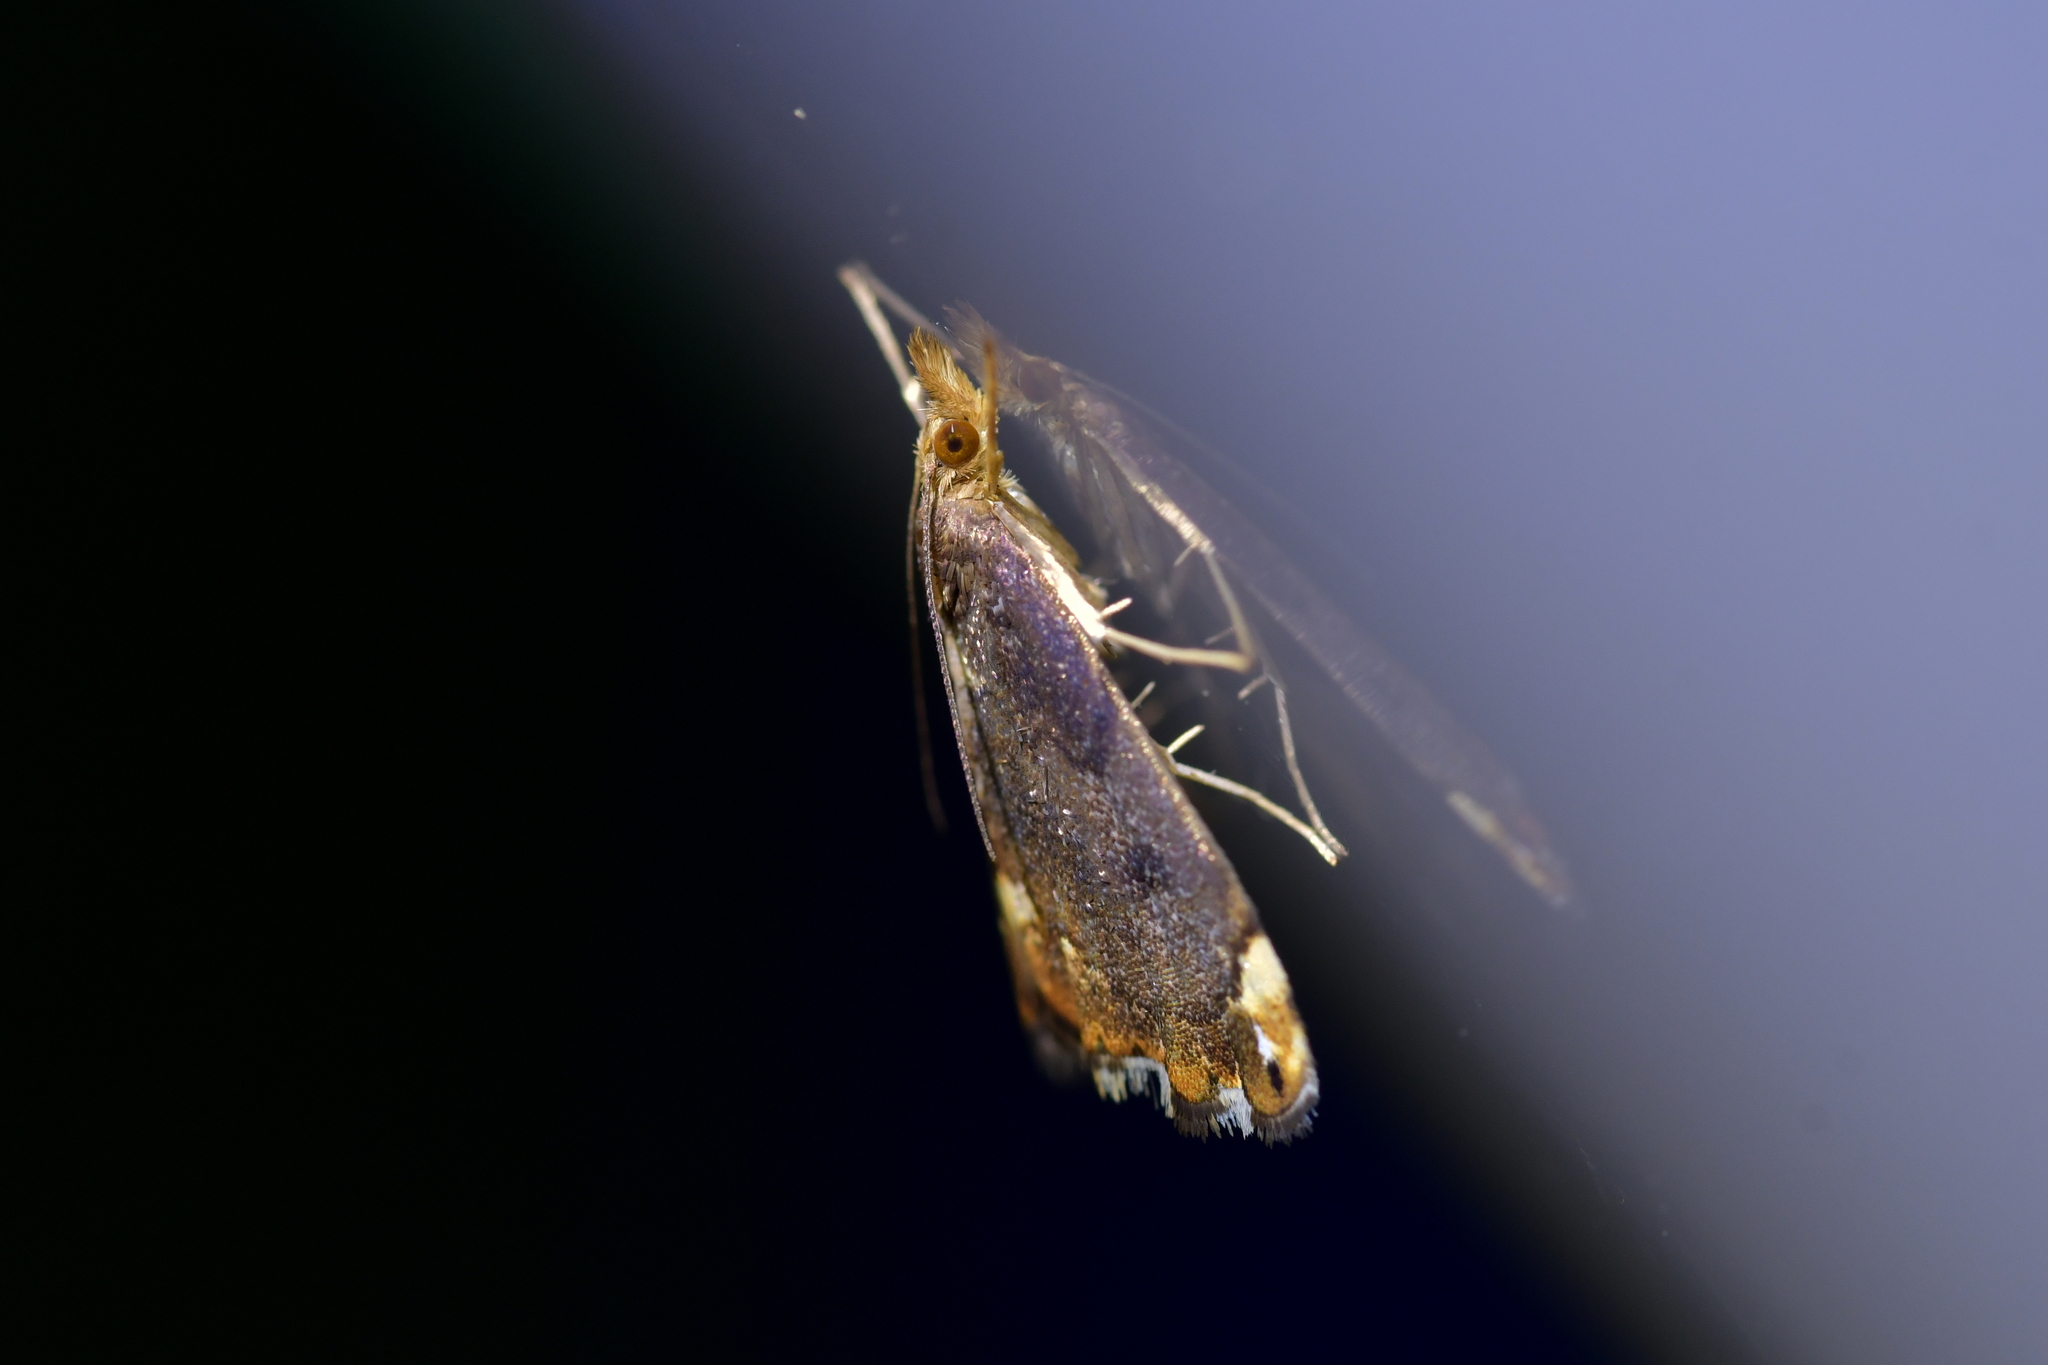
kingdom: Animalia
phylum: Arthropoda
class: Insecta
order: Lepidoptera
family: Crambidae
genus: Glaucocharis
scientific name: Glaucocharis pyrsophanes
